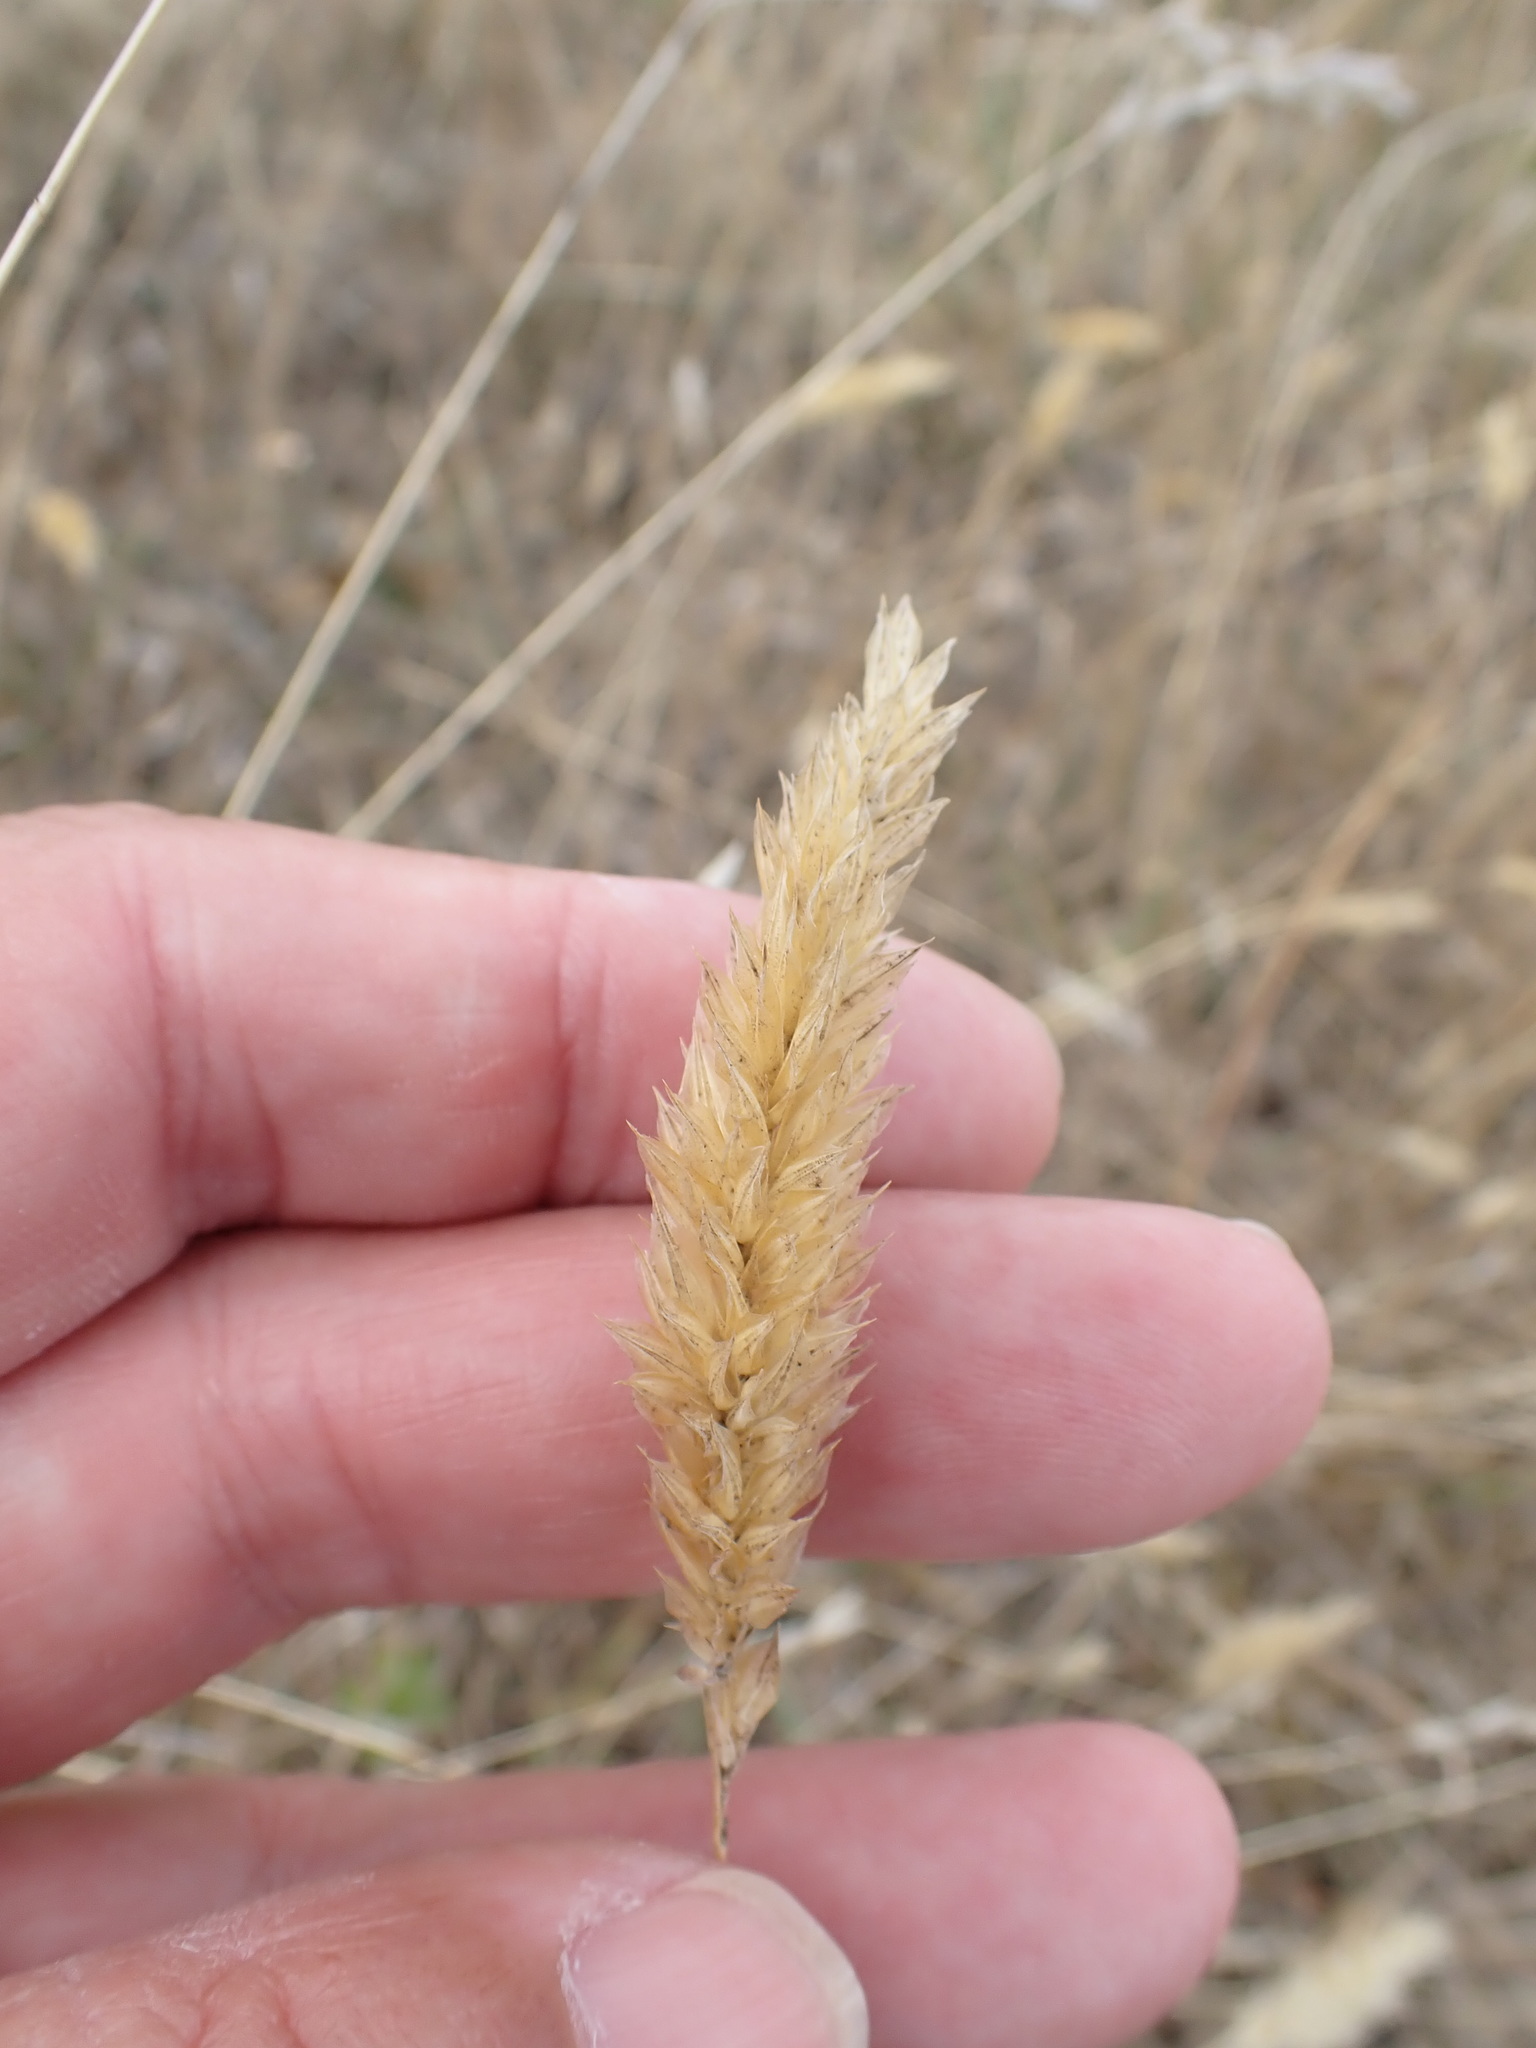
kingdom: Plantae
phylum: Tracheophyta
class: Liliopsida
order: Poales
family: Poaceae
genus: Anthoxanthum
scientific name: Anthoxanthum odoratum
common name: Sweet vernalgrass
